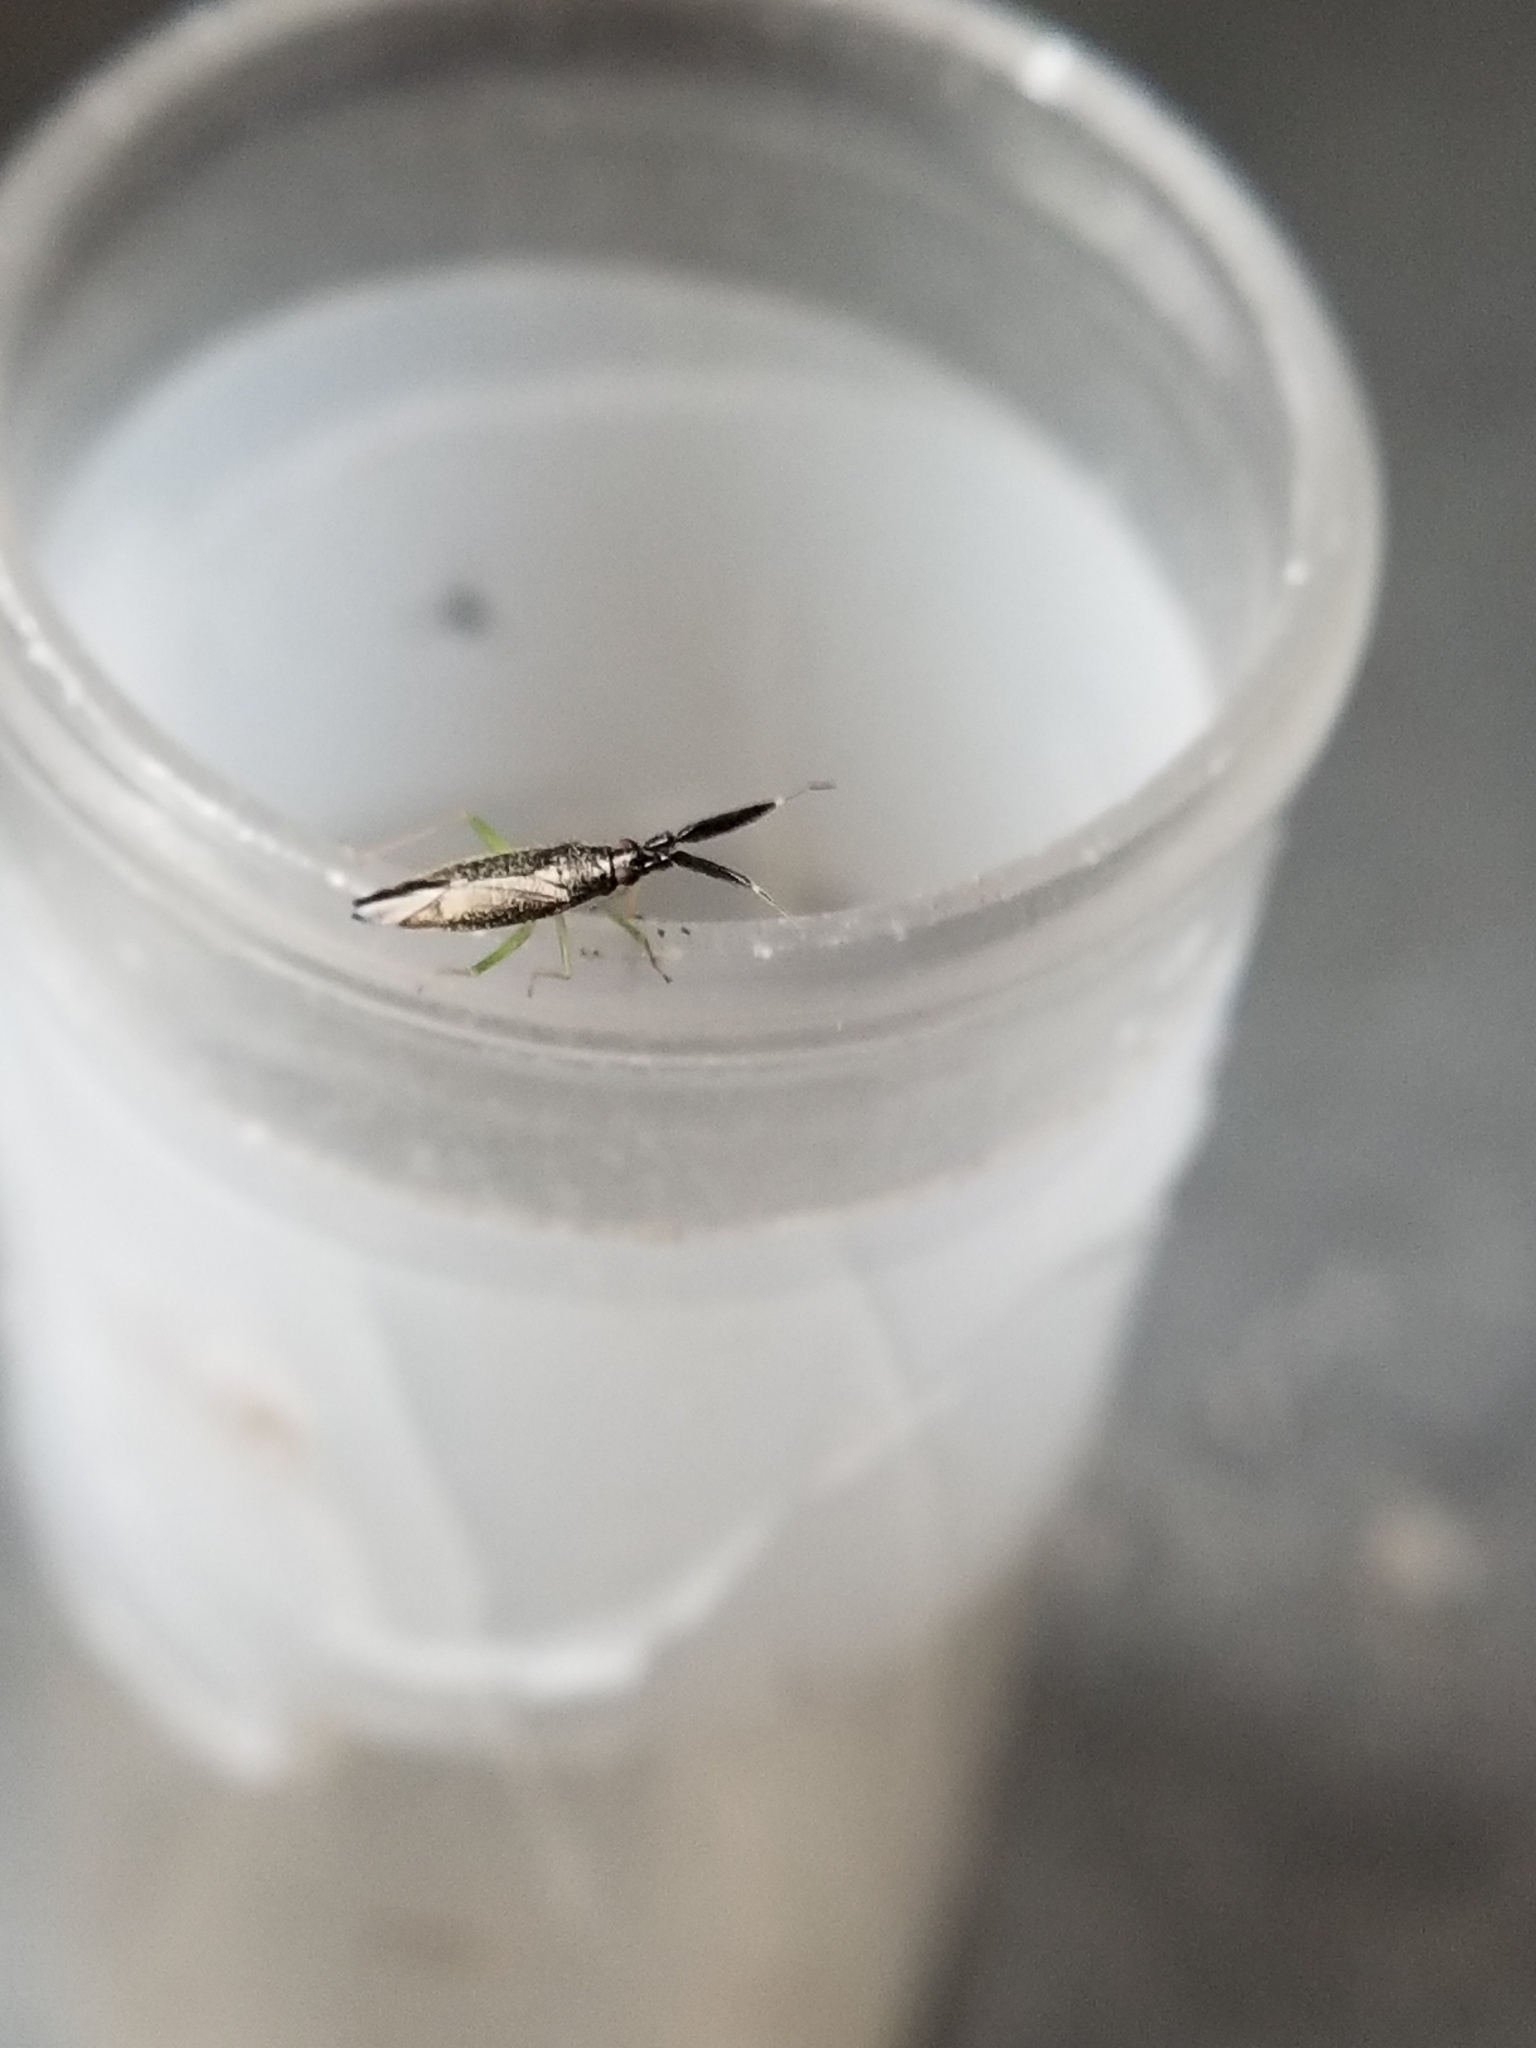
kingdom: Animalia
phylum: Arthropoda
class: Insecta
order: Hemiptera
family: Miridae
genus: Heterotoma
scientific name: Heterotoma planicornis
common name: Plant bug
